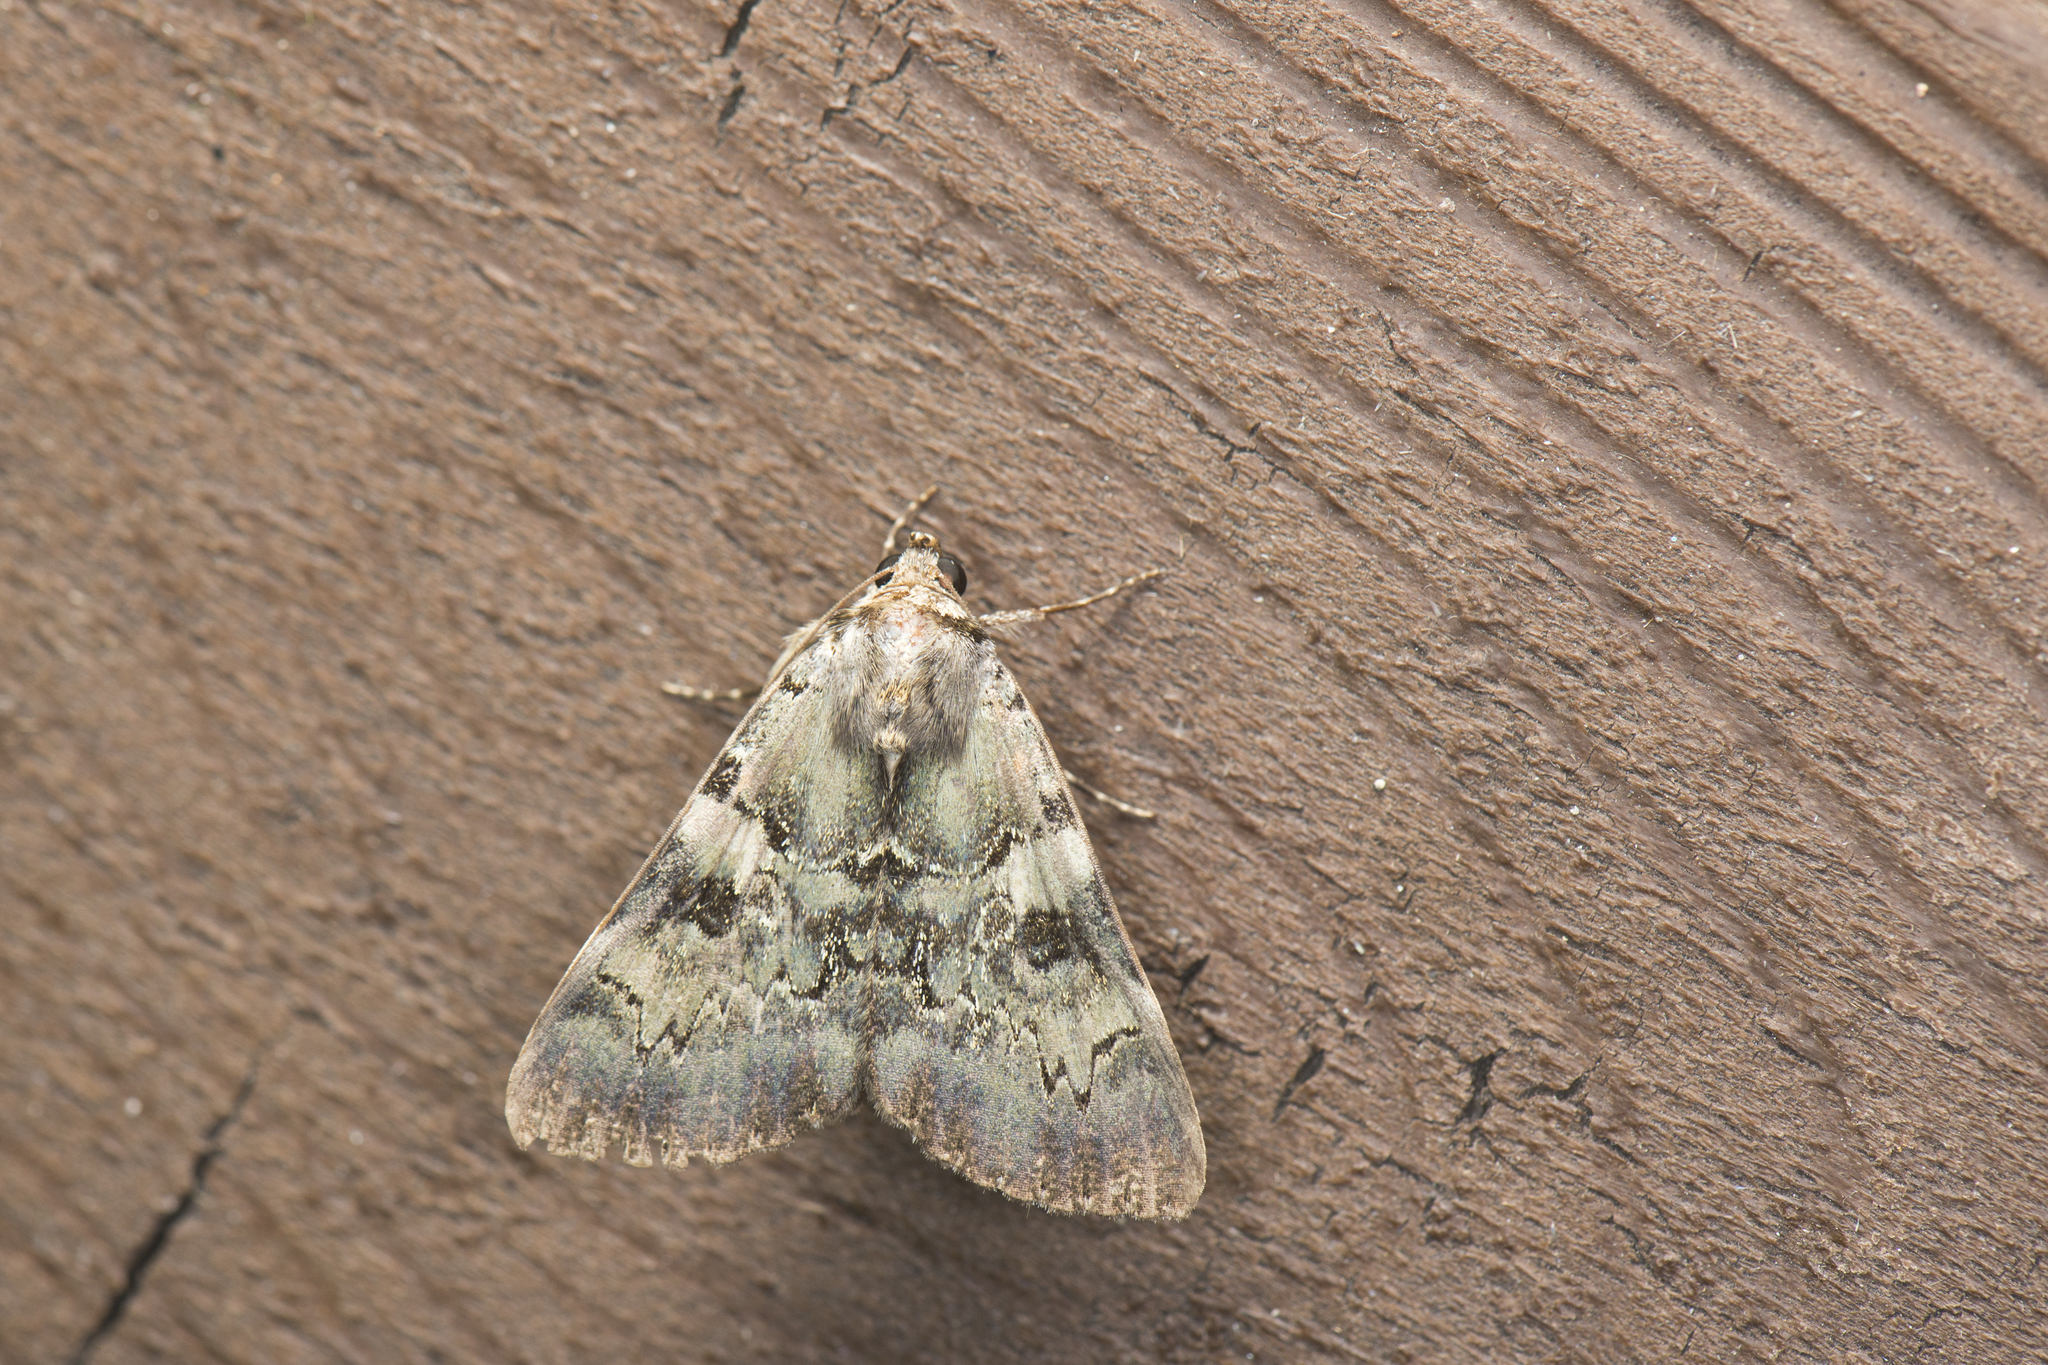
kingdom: Animalia
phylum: Arthropoda
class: Insecta
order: Lepidoptera
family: Erebidae
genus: Catocala
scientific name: Catocala columbina
